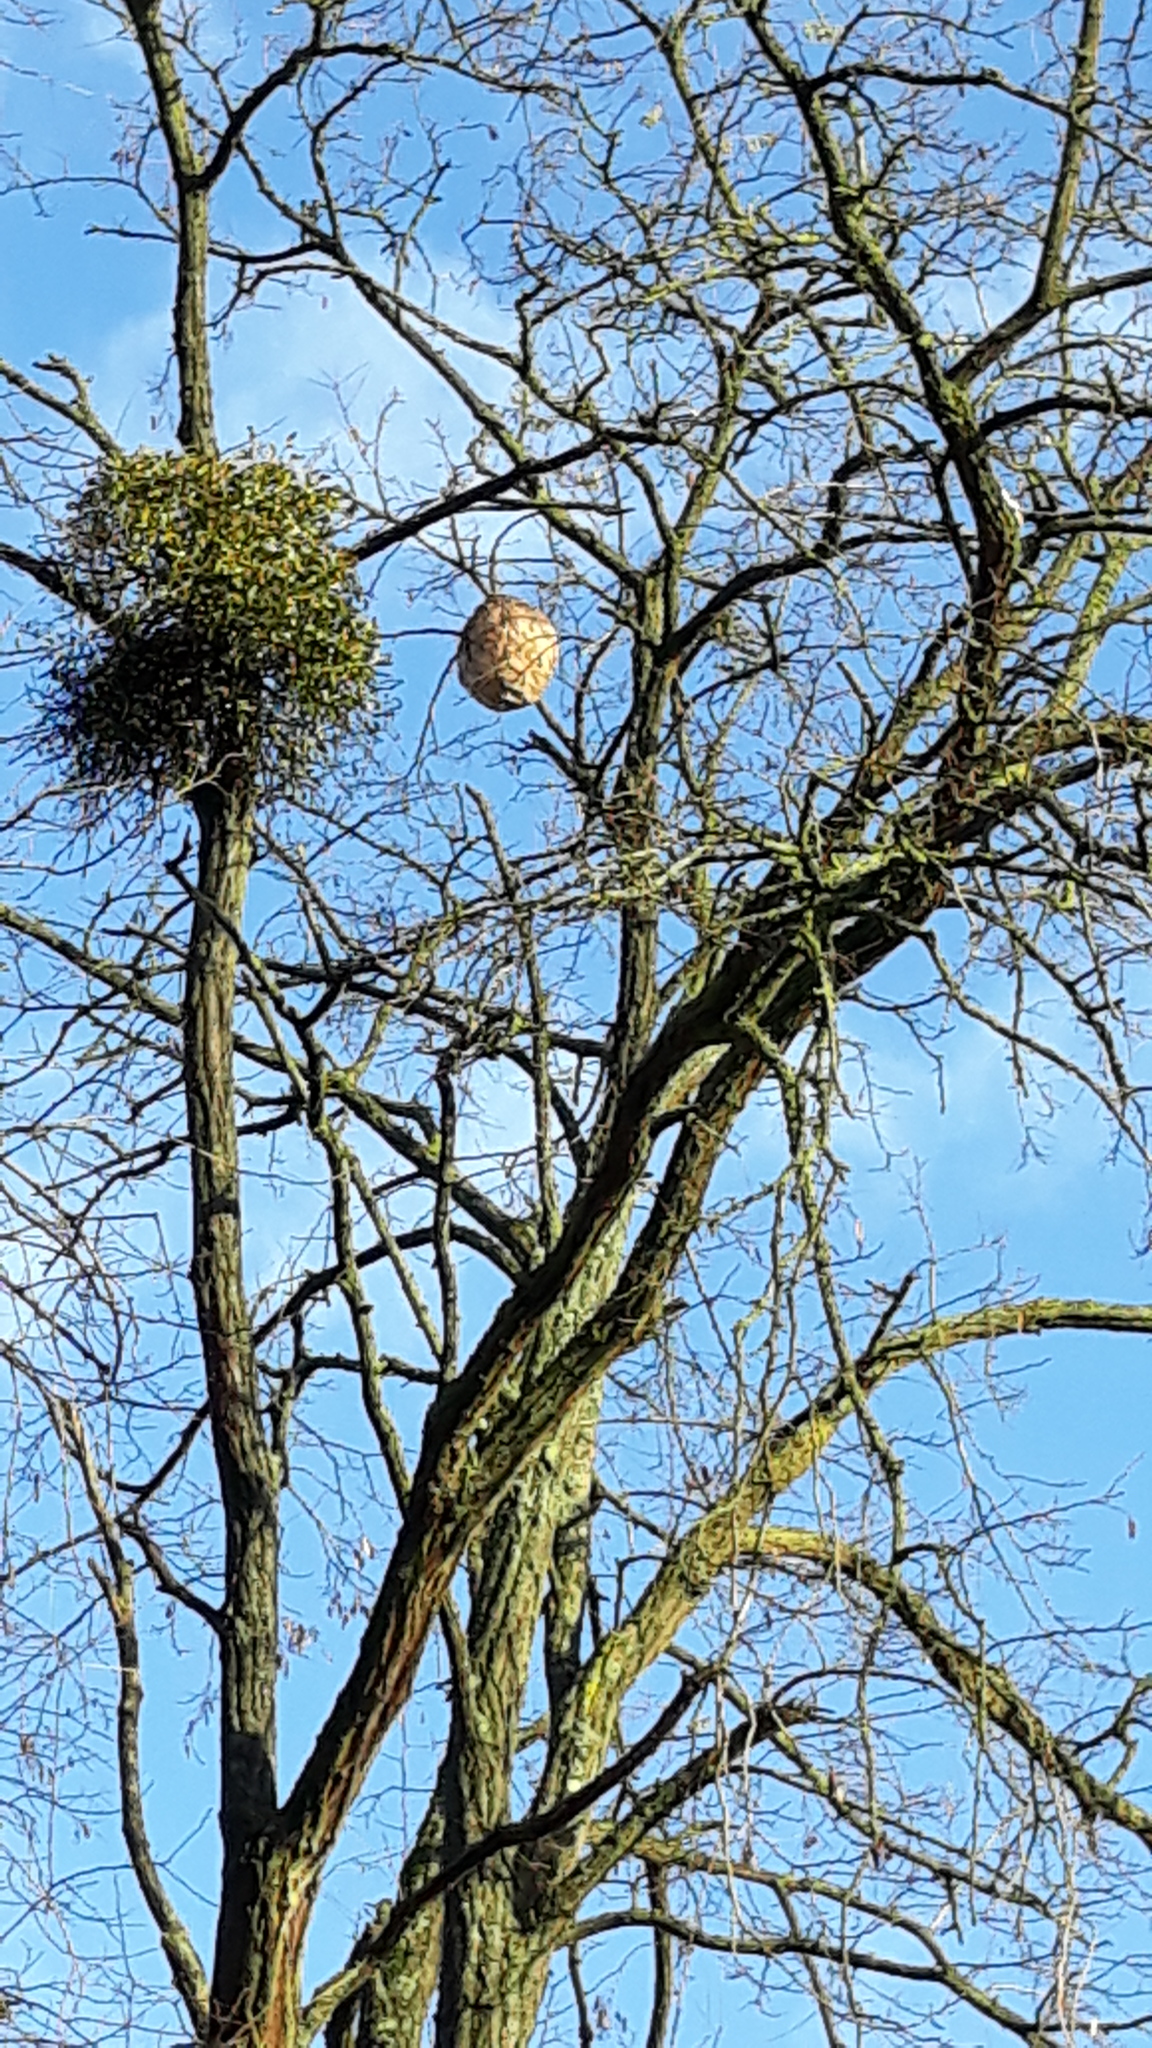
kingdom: Animalia
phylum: Arthropoda
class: Insecta
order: Hymenoptera
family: Vespidae
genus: Vespa
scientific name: Vespa velutina
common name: Asian hornet
